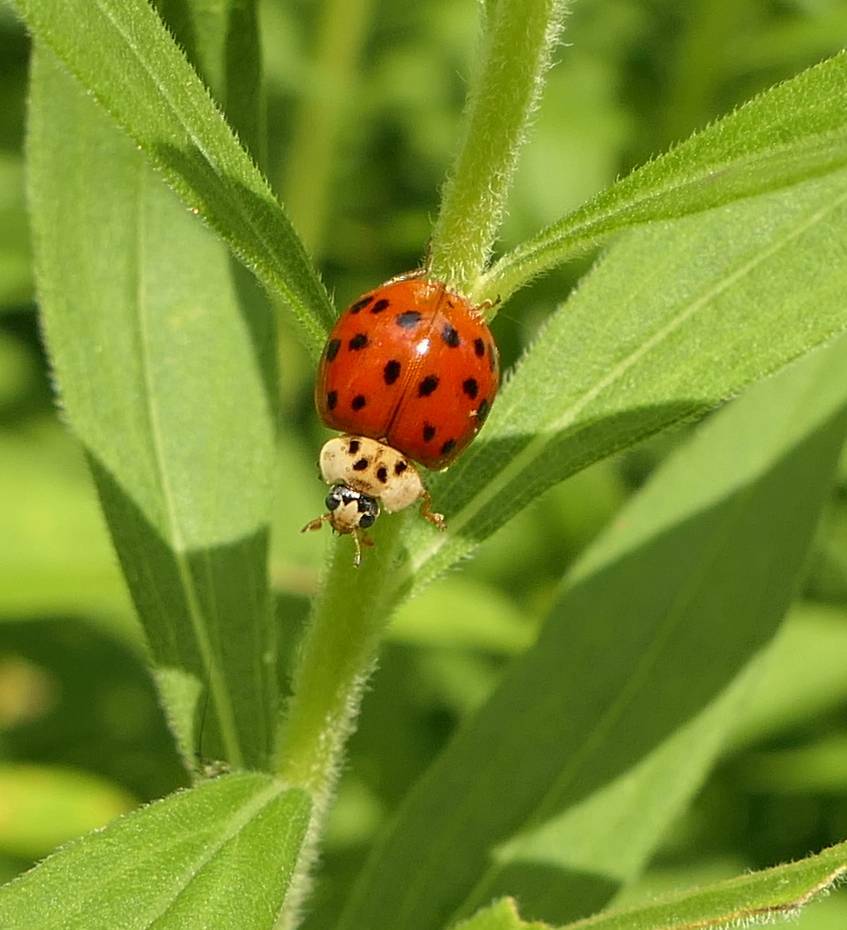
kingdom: Animalia
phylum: Arthropoda
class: Insecta
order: Coleoptera
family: Coccinellidae
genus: Harmonia
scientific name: Harmonia axyridis
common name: Harlequin ladybird
